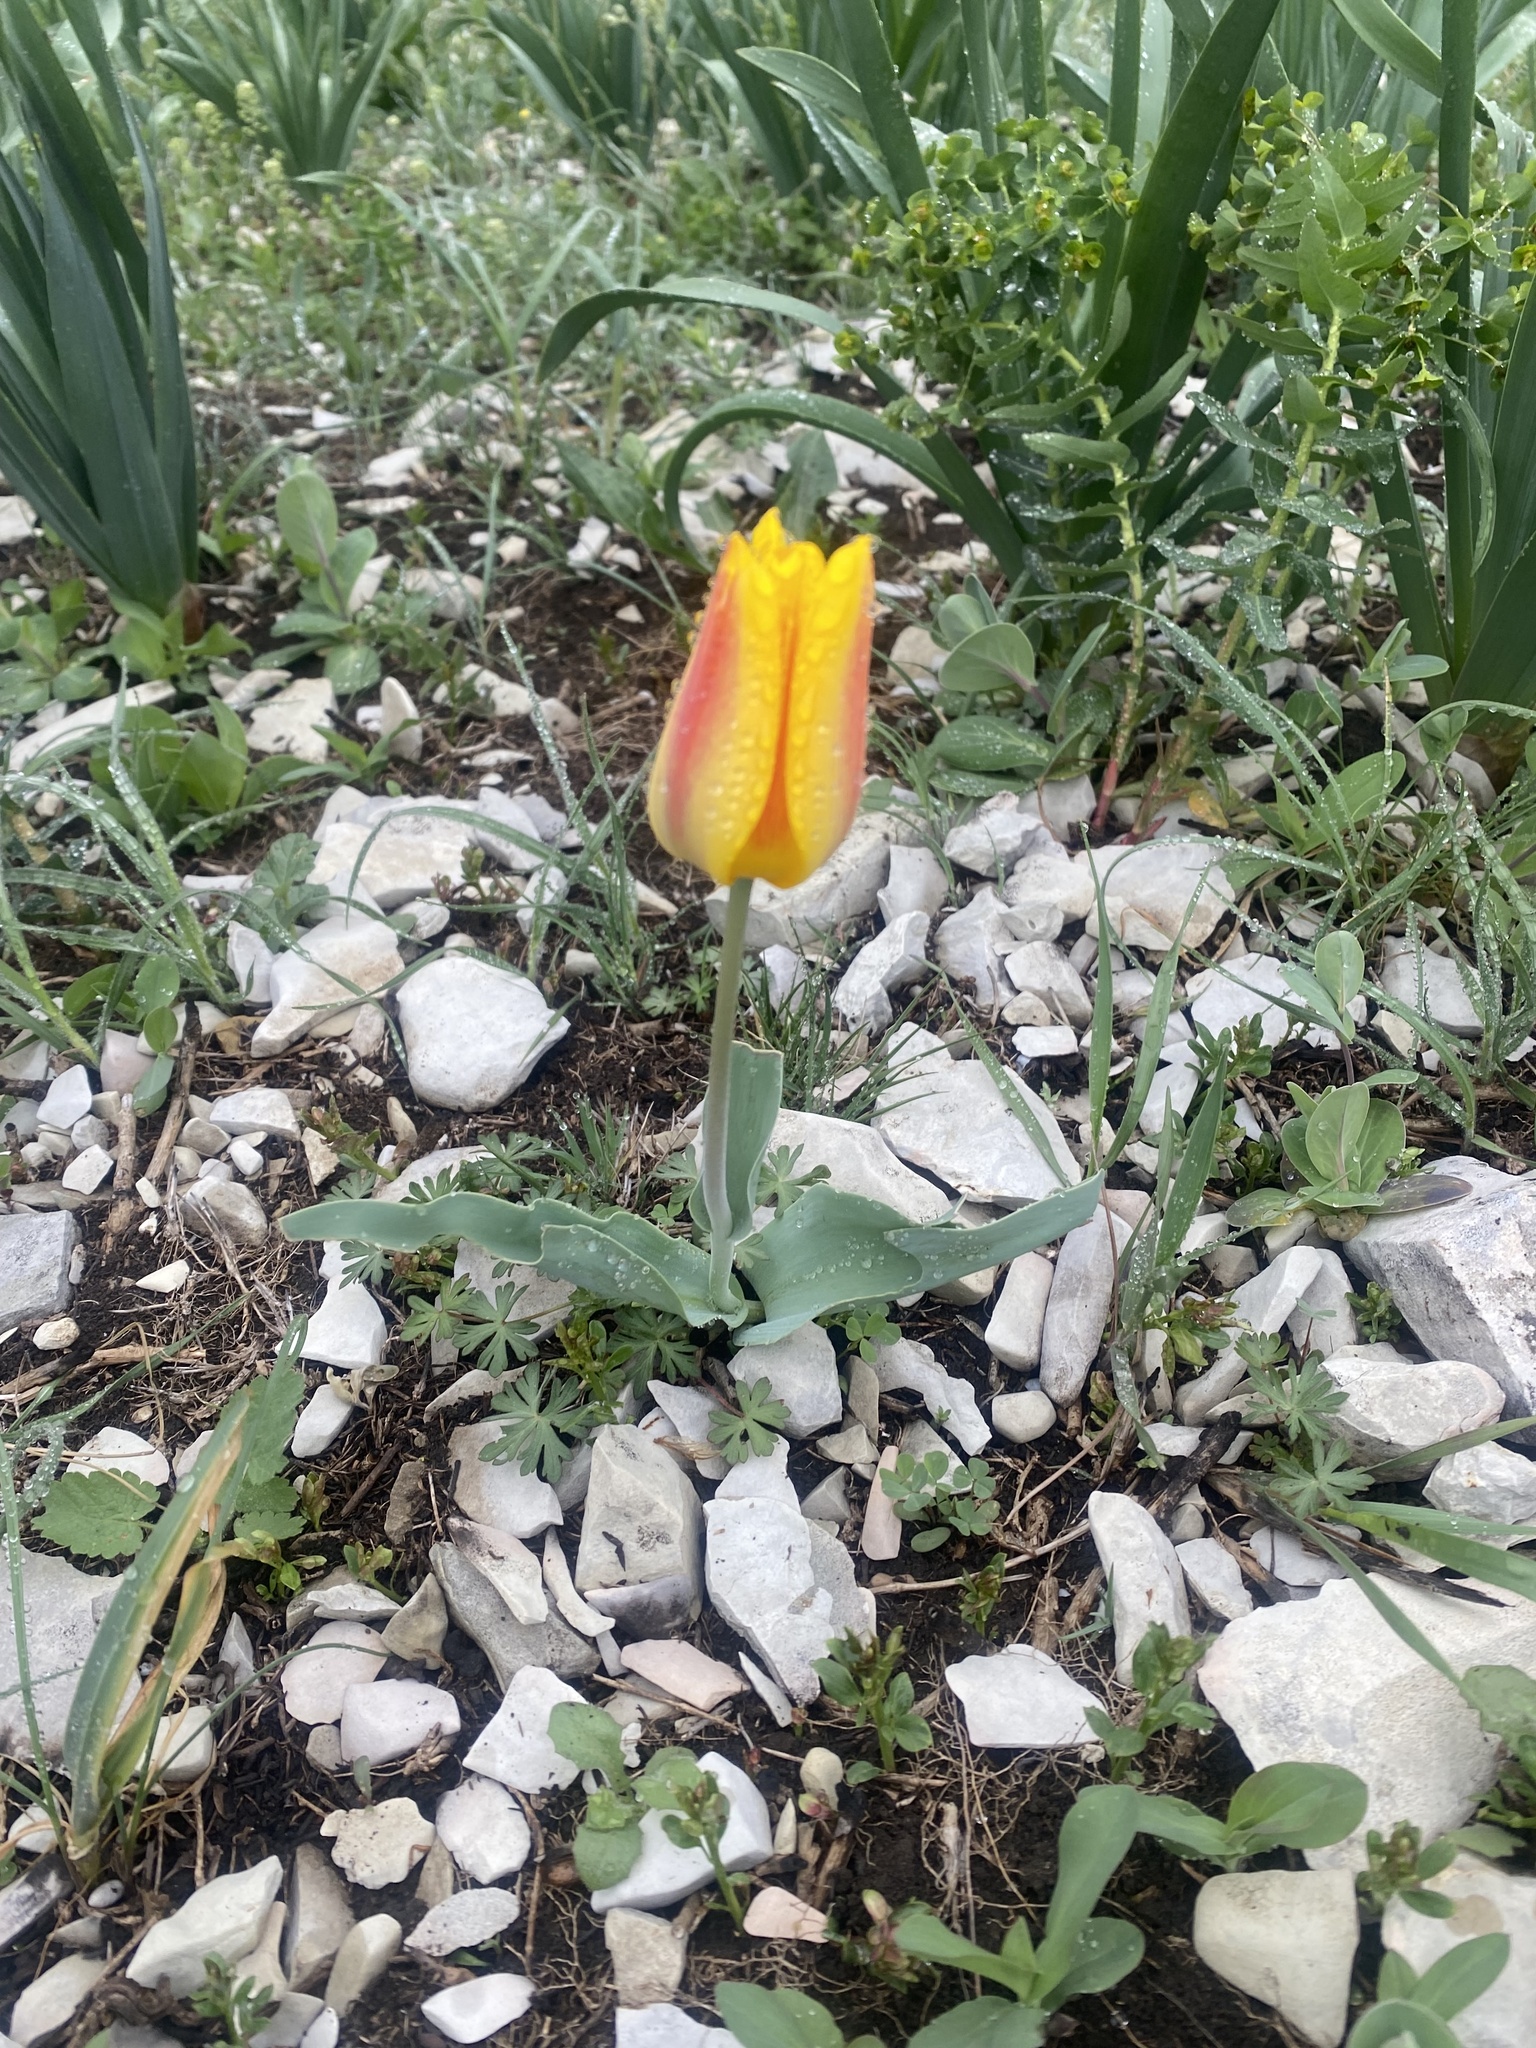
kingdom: Plantae
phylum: Tracheophyta
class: Liliopsida
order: Liliales
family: Liliaceae
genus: Tulipa
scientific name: Tulipa suaveolens
